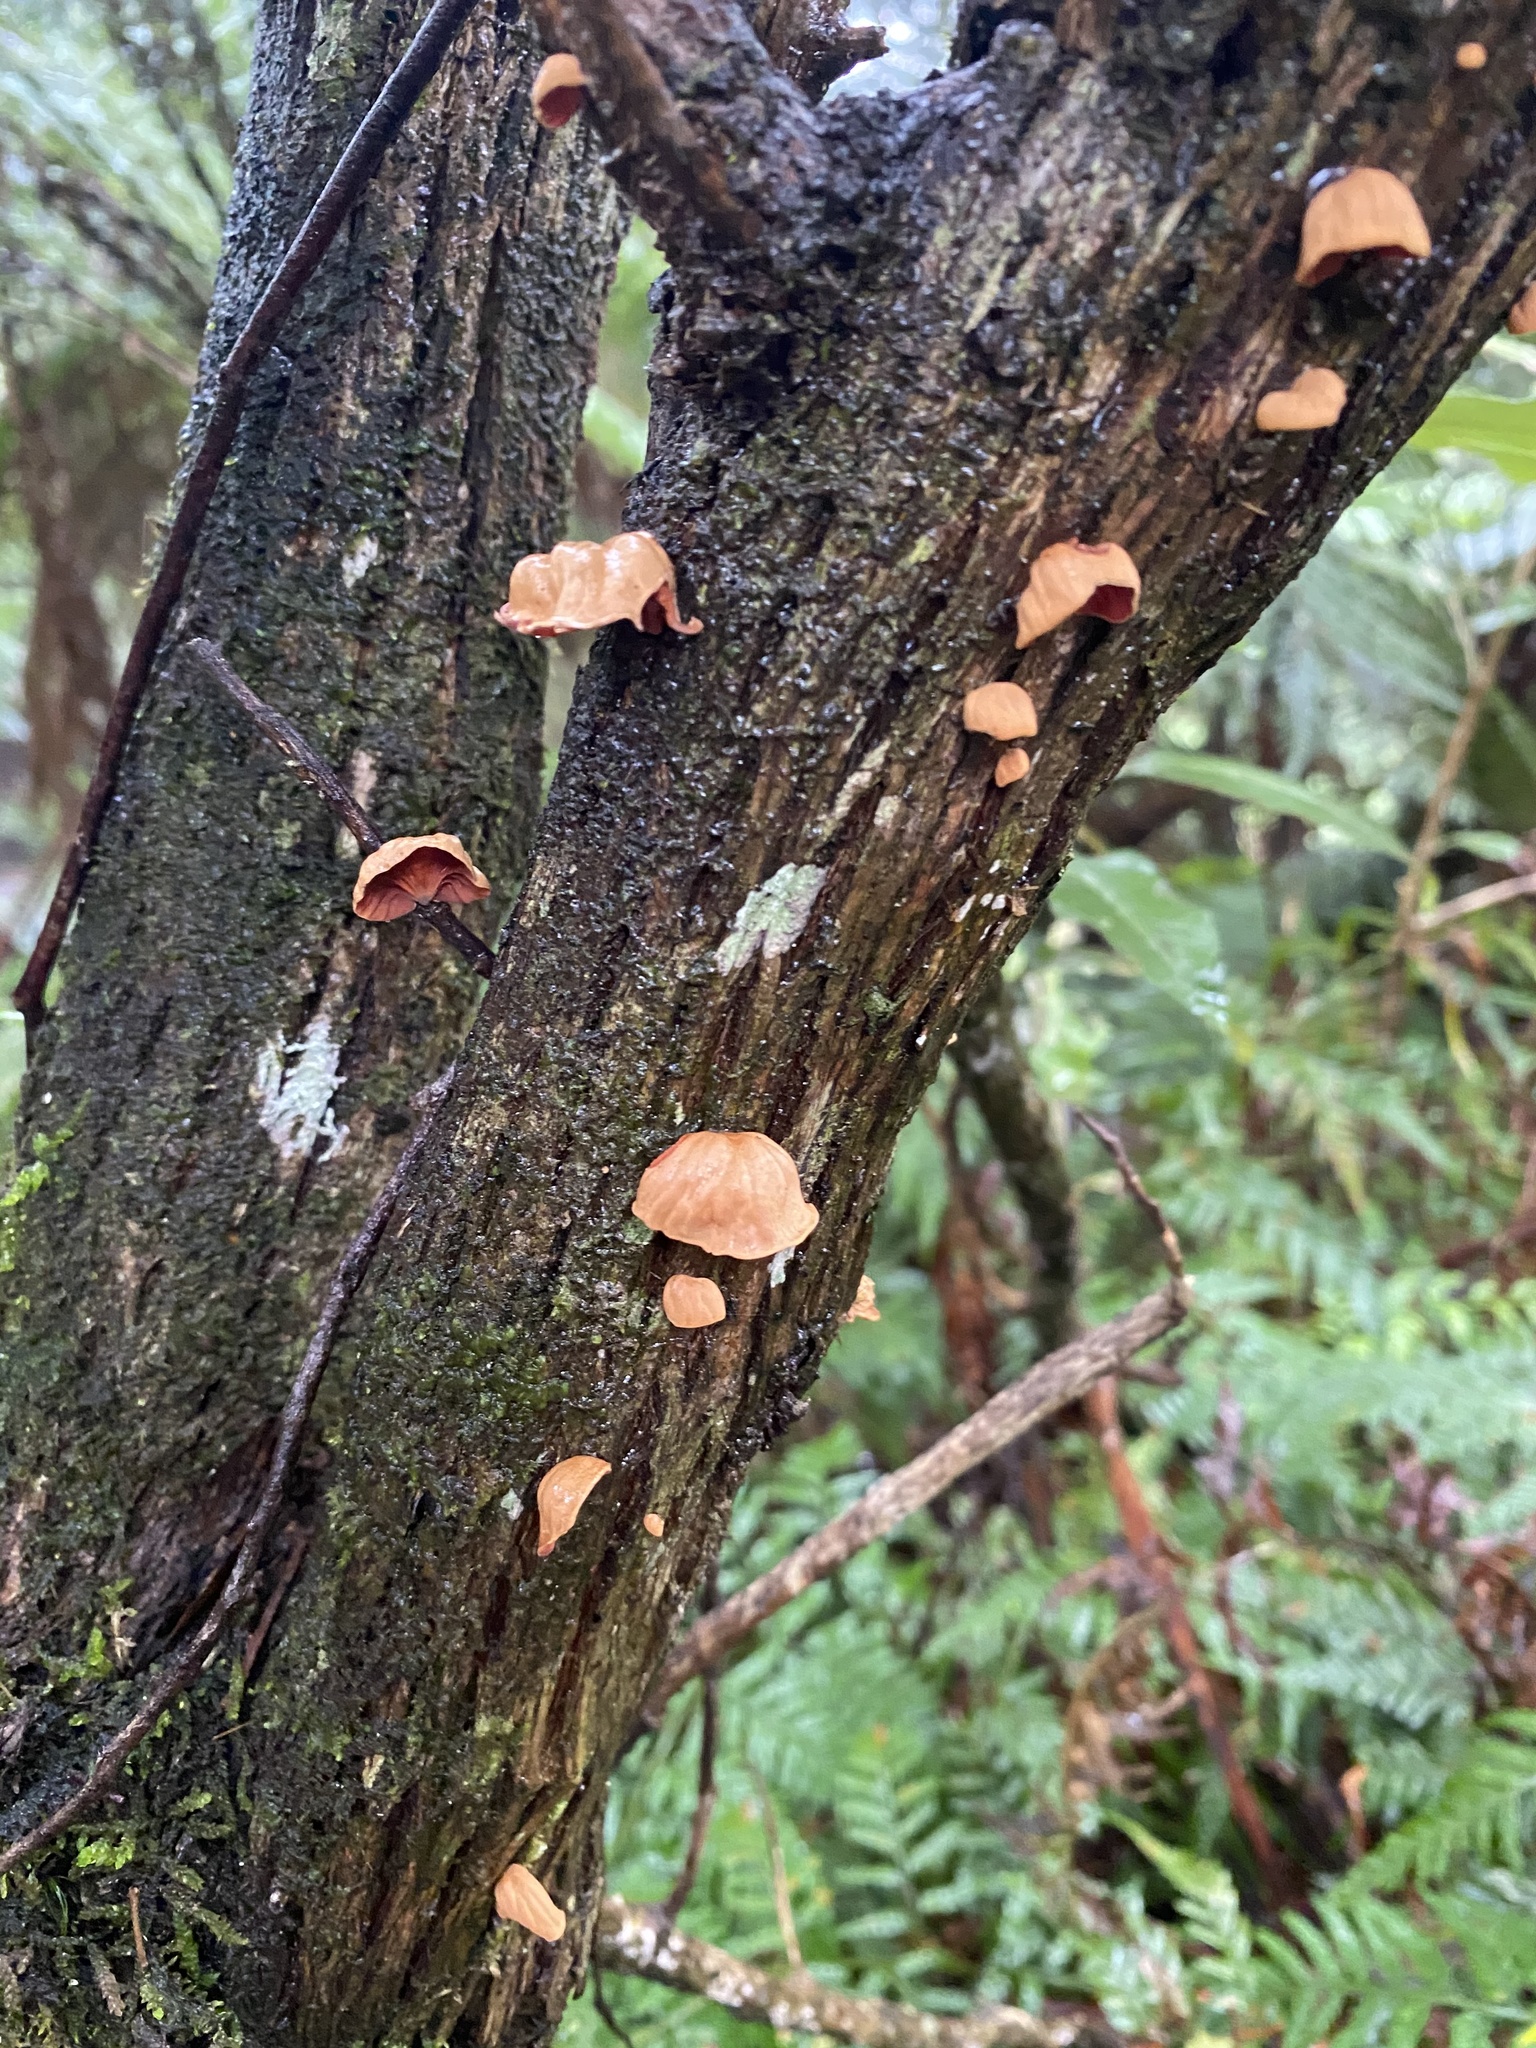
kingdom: Fungi
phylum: Basidiomycota
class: Agaricomycetes
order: Agaricales
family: Omphalotaceae
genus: Anthracophyllum
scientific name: Anthracophyllum archeri
